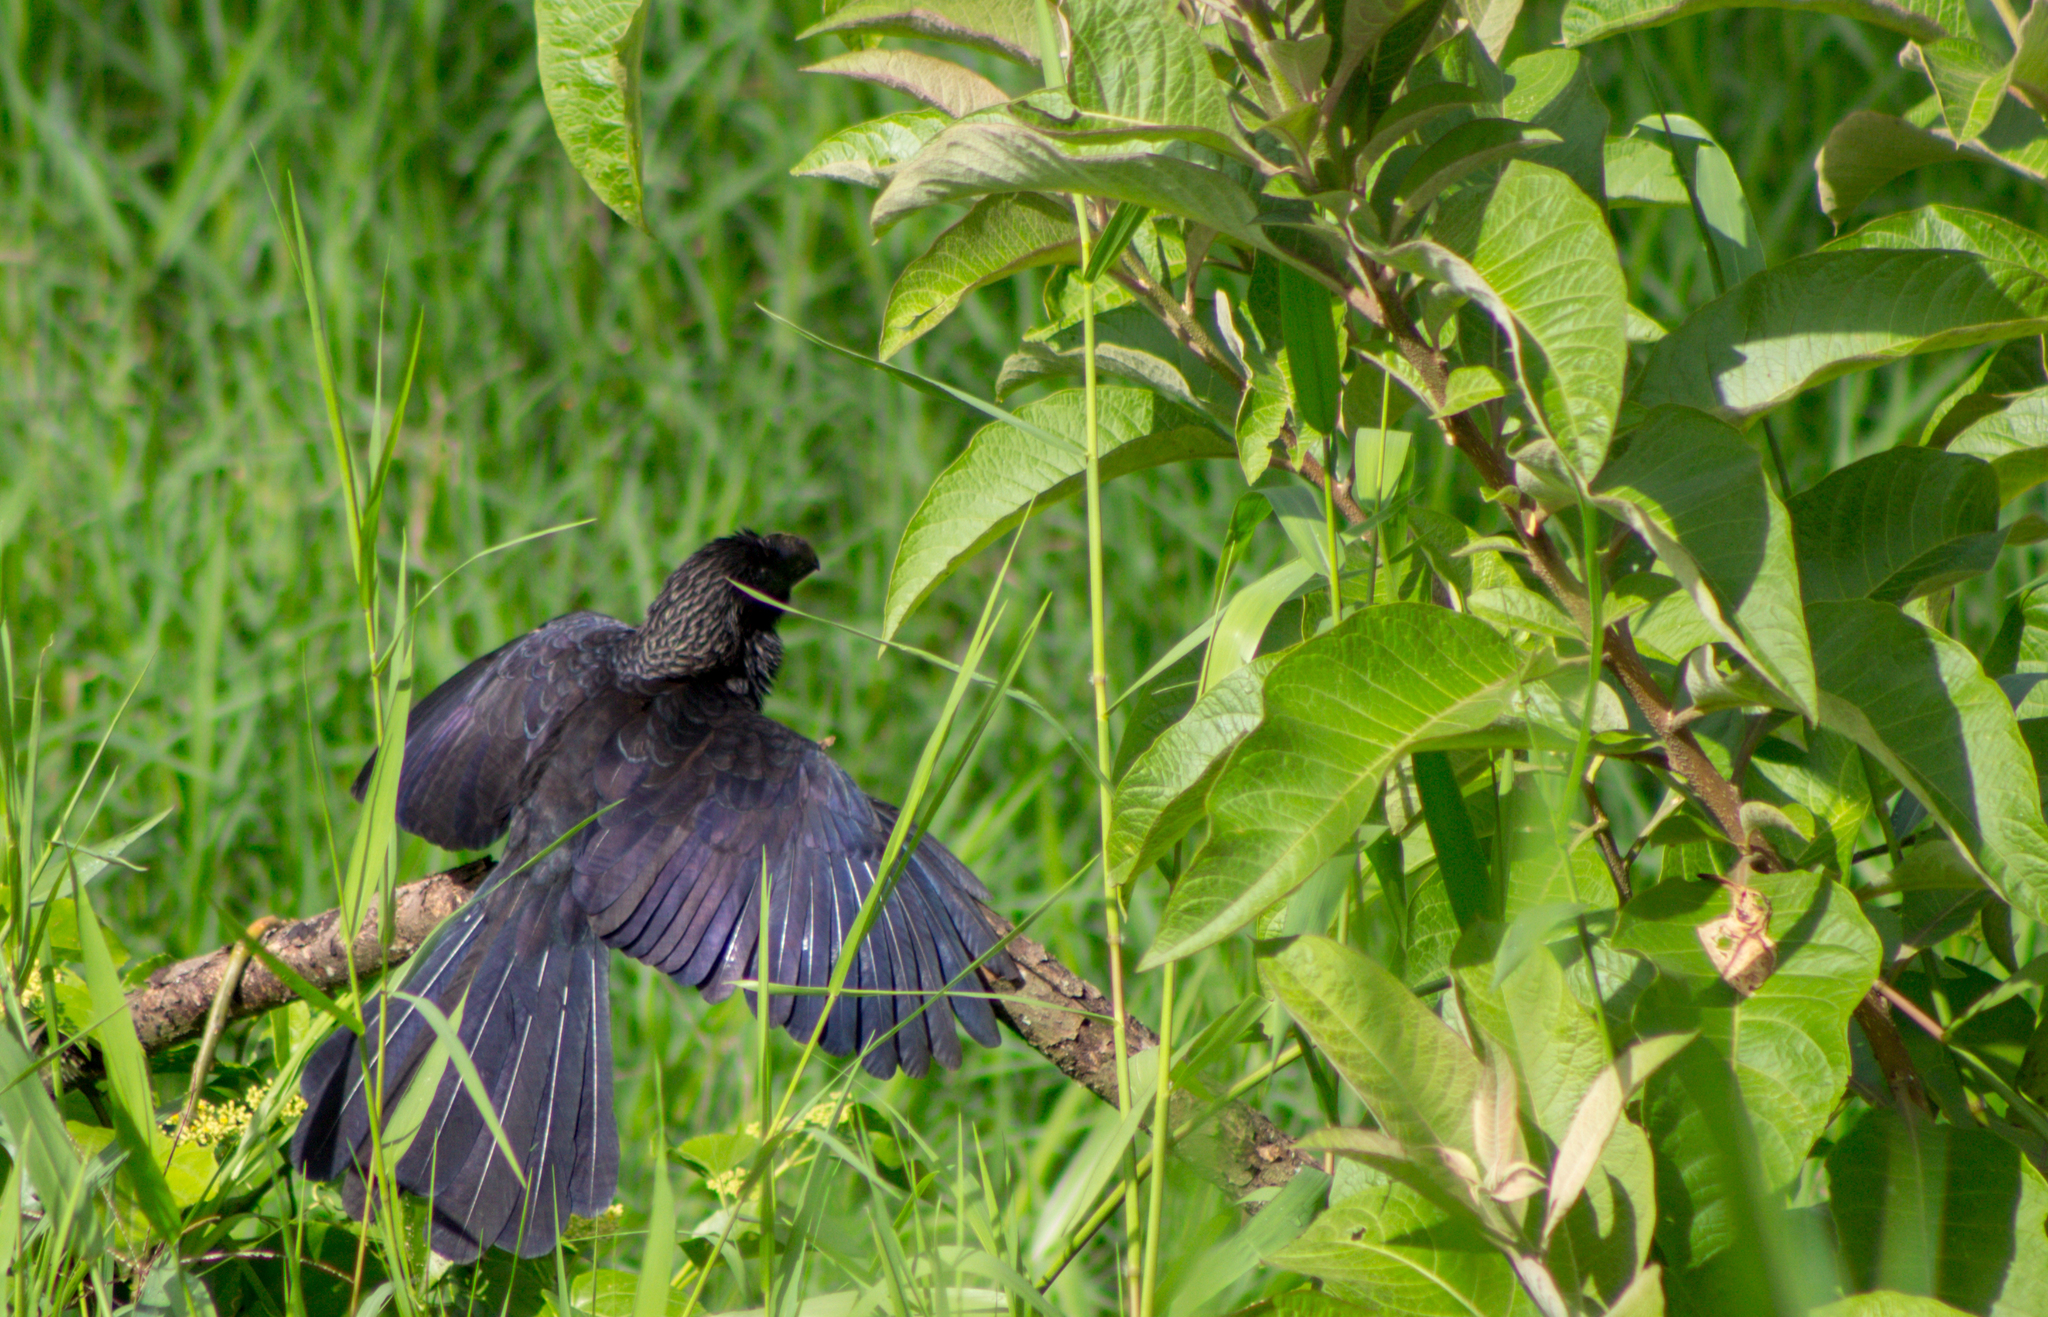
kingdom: Animalia
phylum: Chordata
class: Aves
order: Cuculiformes
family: Cuculidae
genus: Crotophaga
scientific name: Crotophaga ani
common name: Smooth-billed ani
